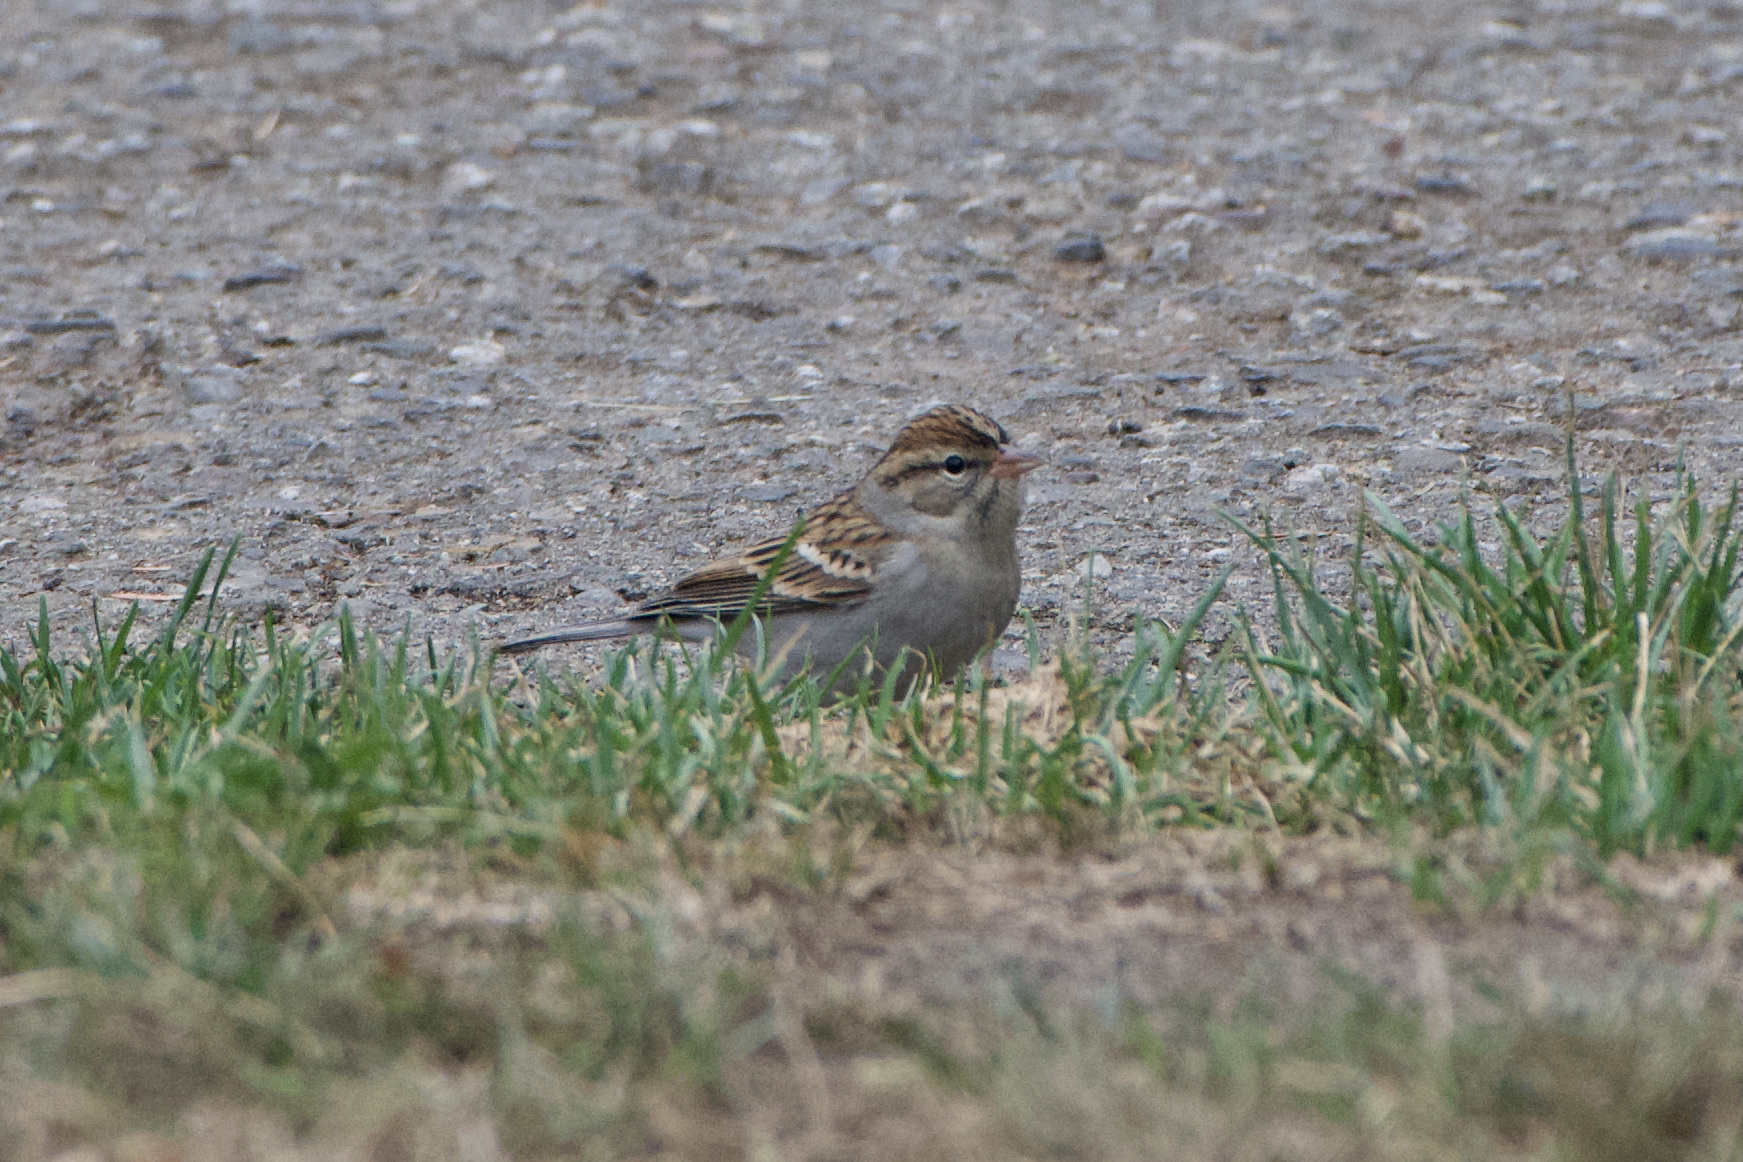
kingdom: Animalia
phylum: Chordata
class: Aves
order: Passeriformes
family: Passerellidae
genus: Spizella
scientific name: Spizella passerina
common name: Chipping sparrow
